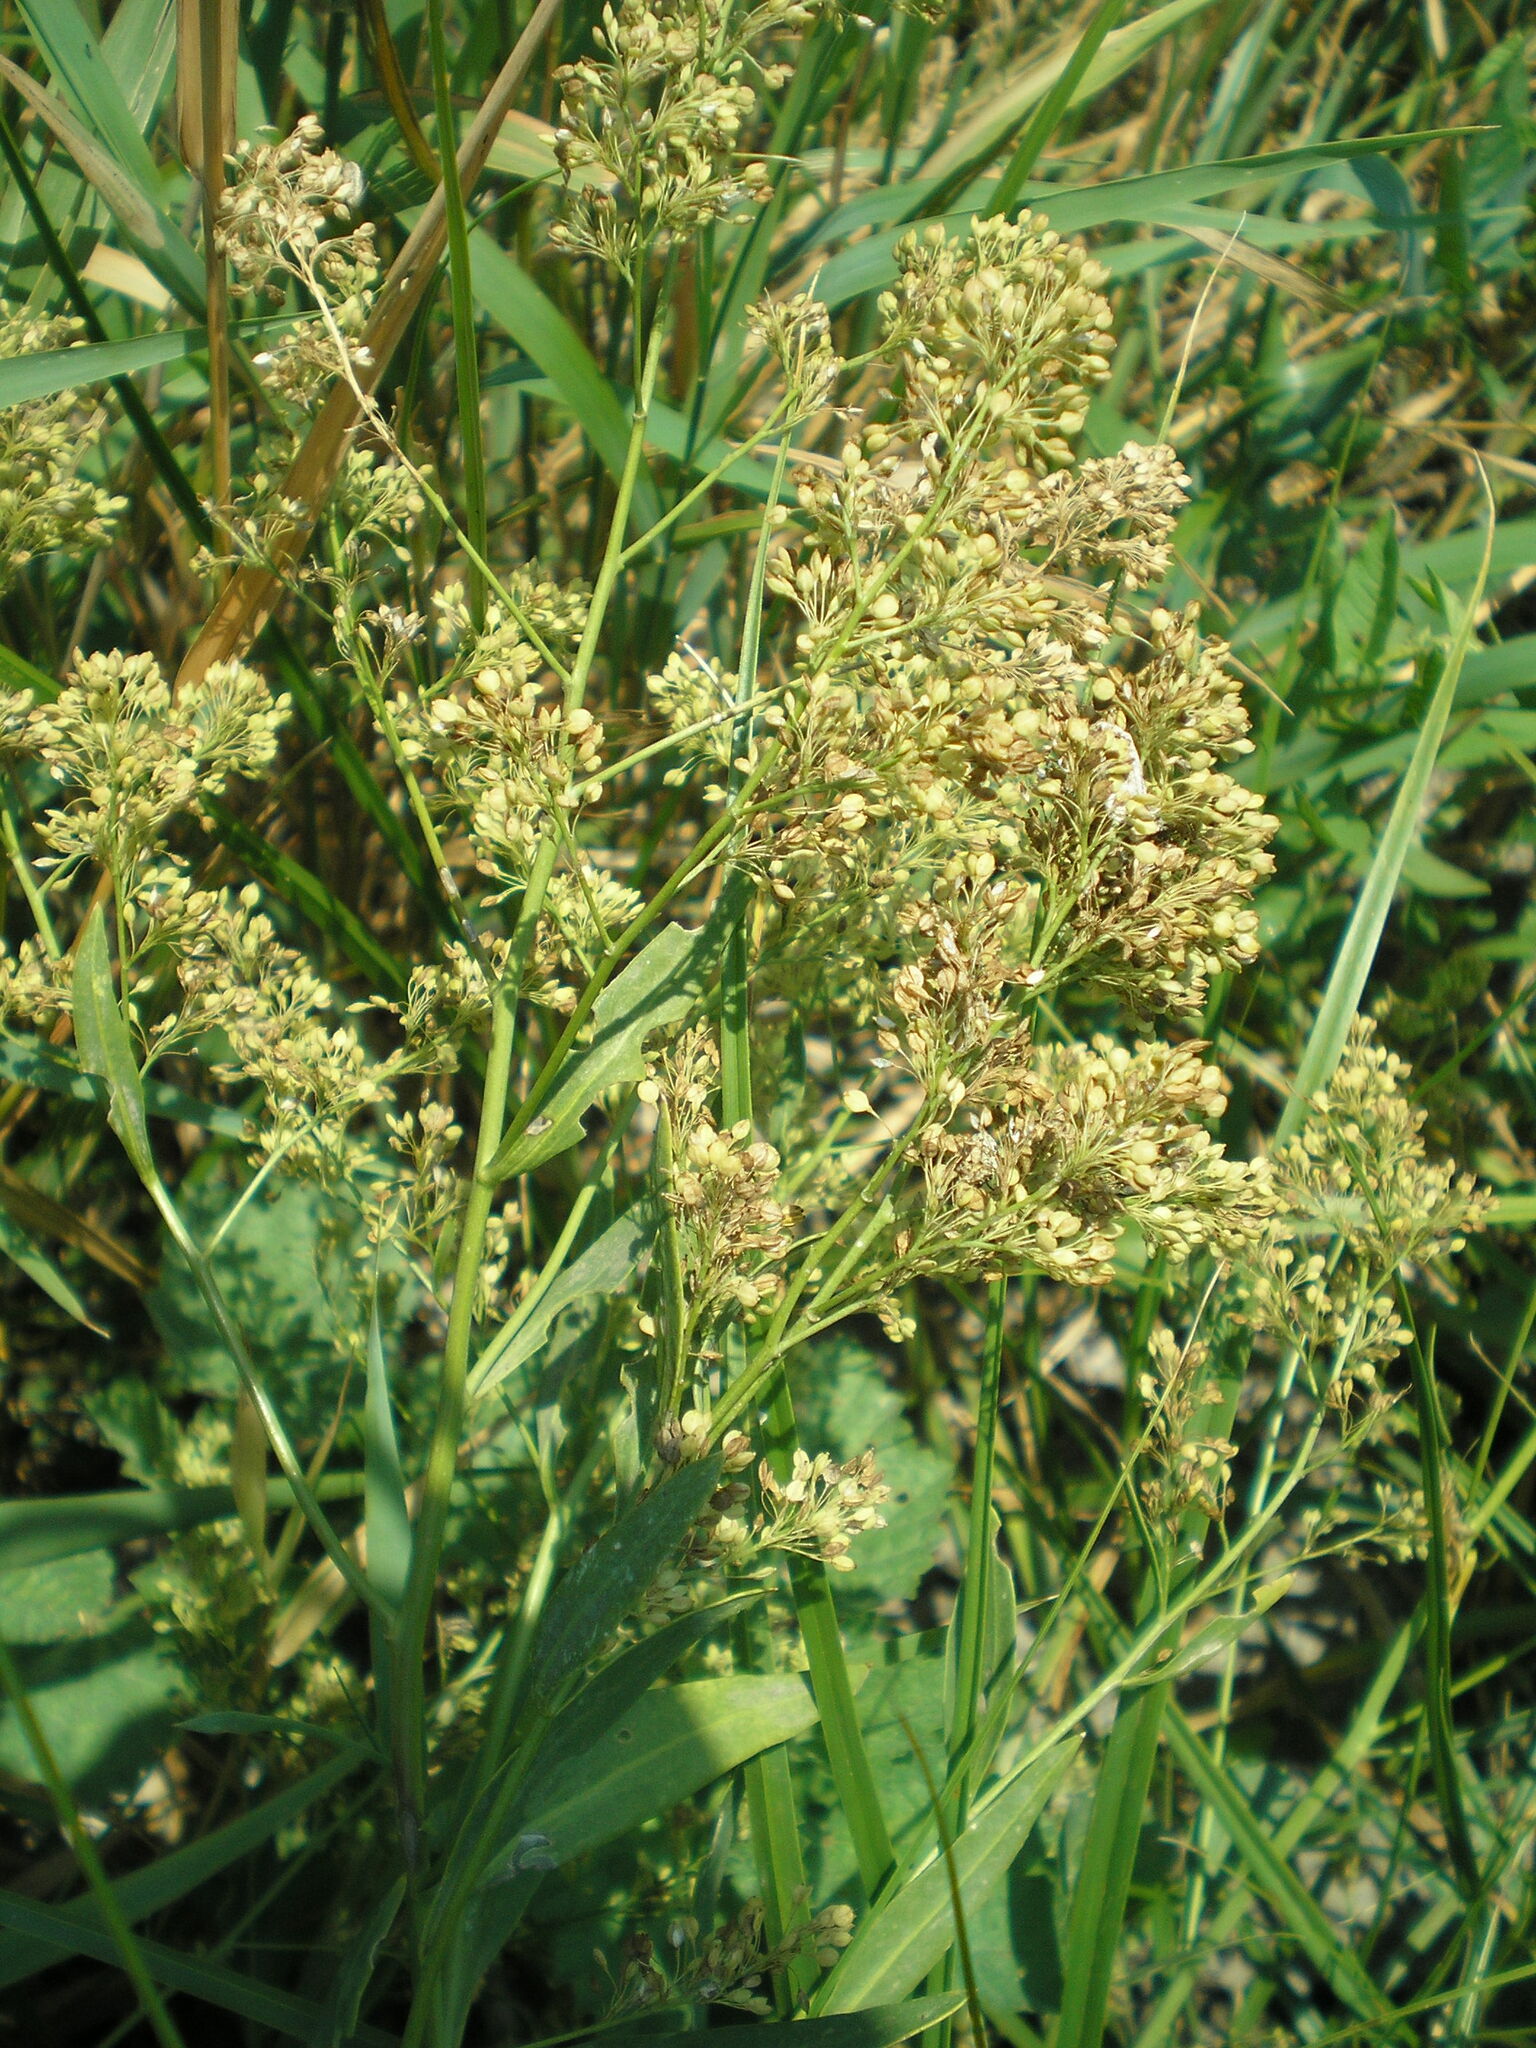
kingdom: Plantae
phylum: Tracheophyta
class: Magnoliopsida
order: Brassicales
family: Brassicaceae
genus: Lepidium
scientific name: Lepidium latifolium
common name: Dittander
